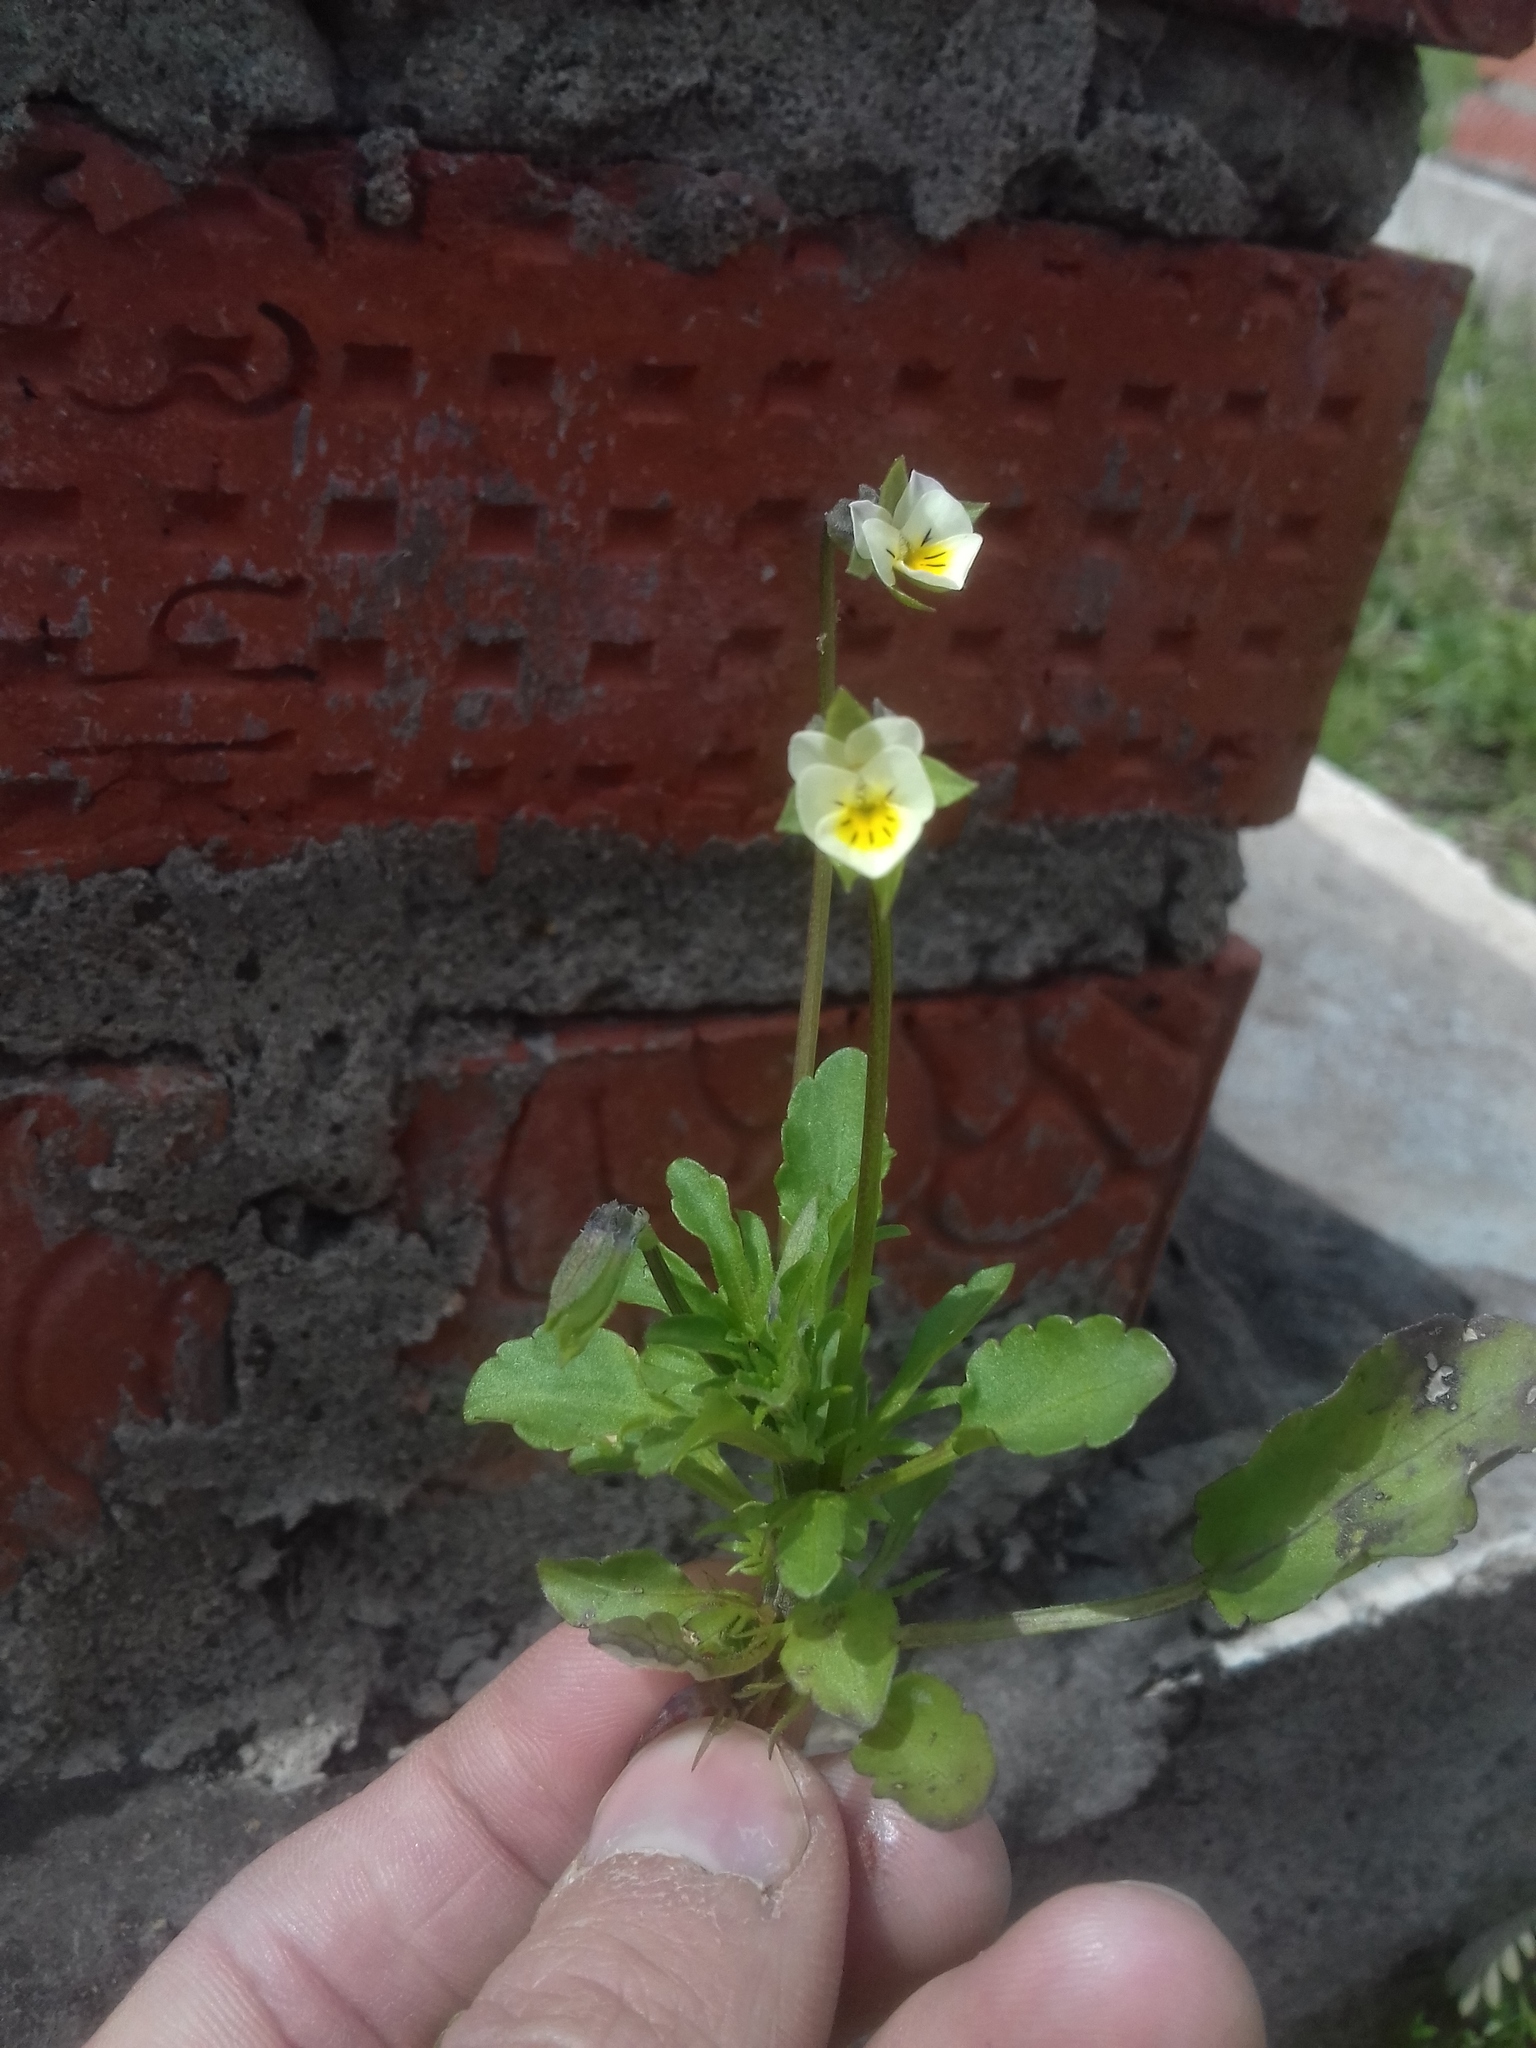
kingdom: Plantae
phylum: Tracheophyta
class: Magnoliopsida
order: Malpighiales
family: Violaceae
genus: Viola
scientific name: Viola arvensis
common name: Field pansy
